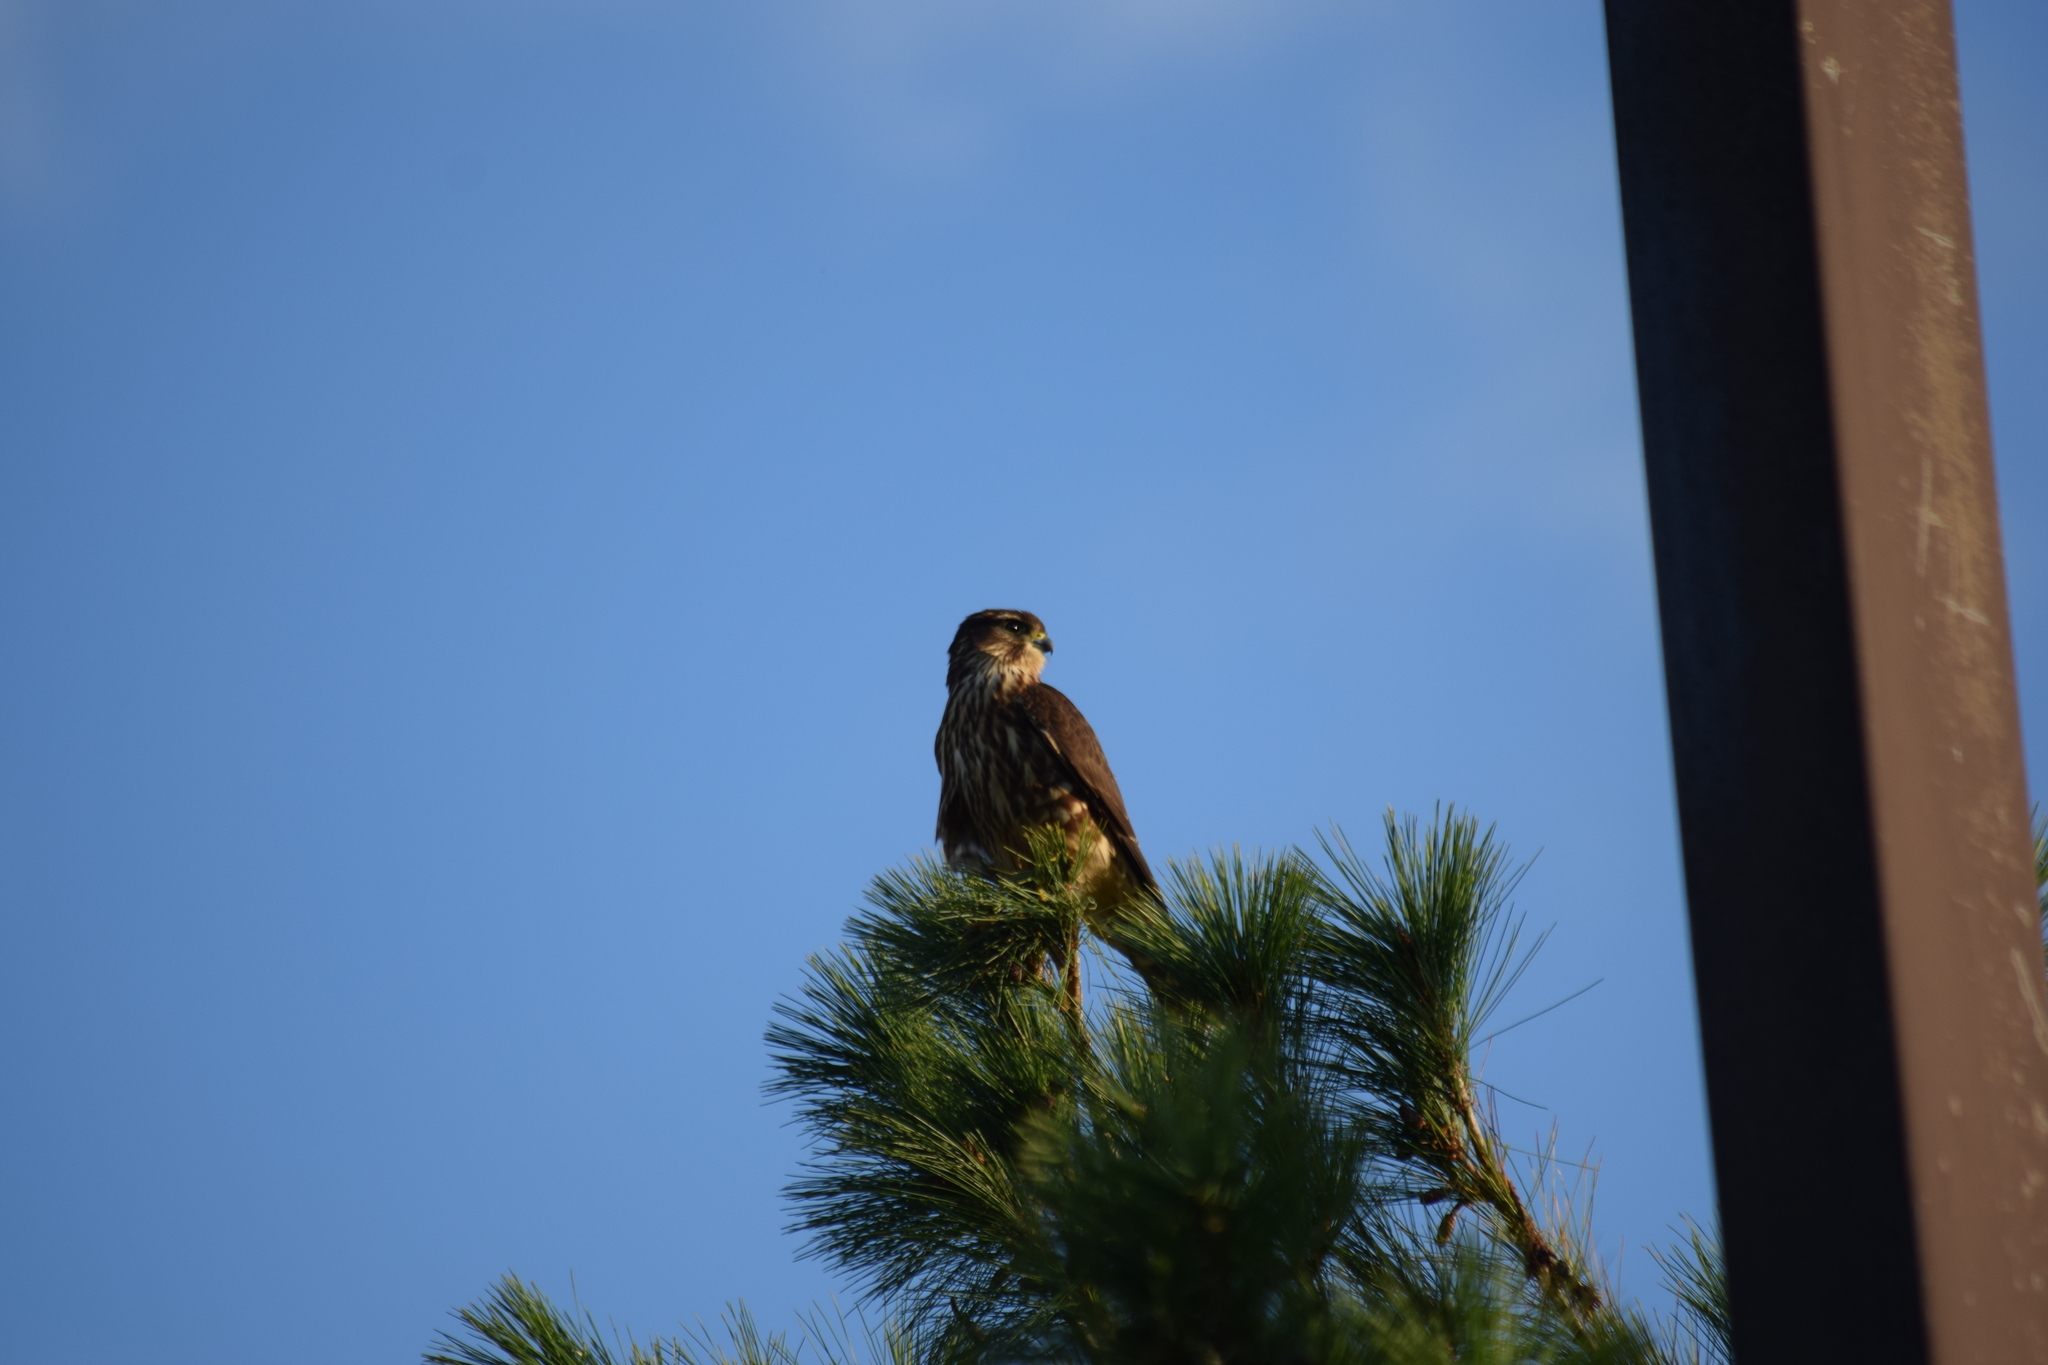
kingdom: Animalia
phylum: Chordata
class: Aves
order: Falconiformes
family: Falconidae
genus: Falco
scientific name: Falco columbarius
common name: Merlin
